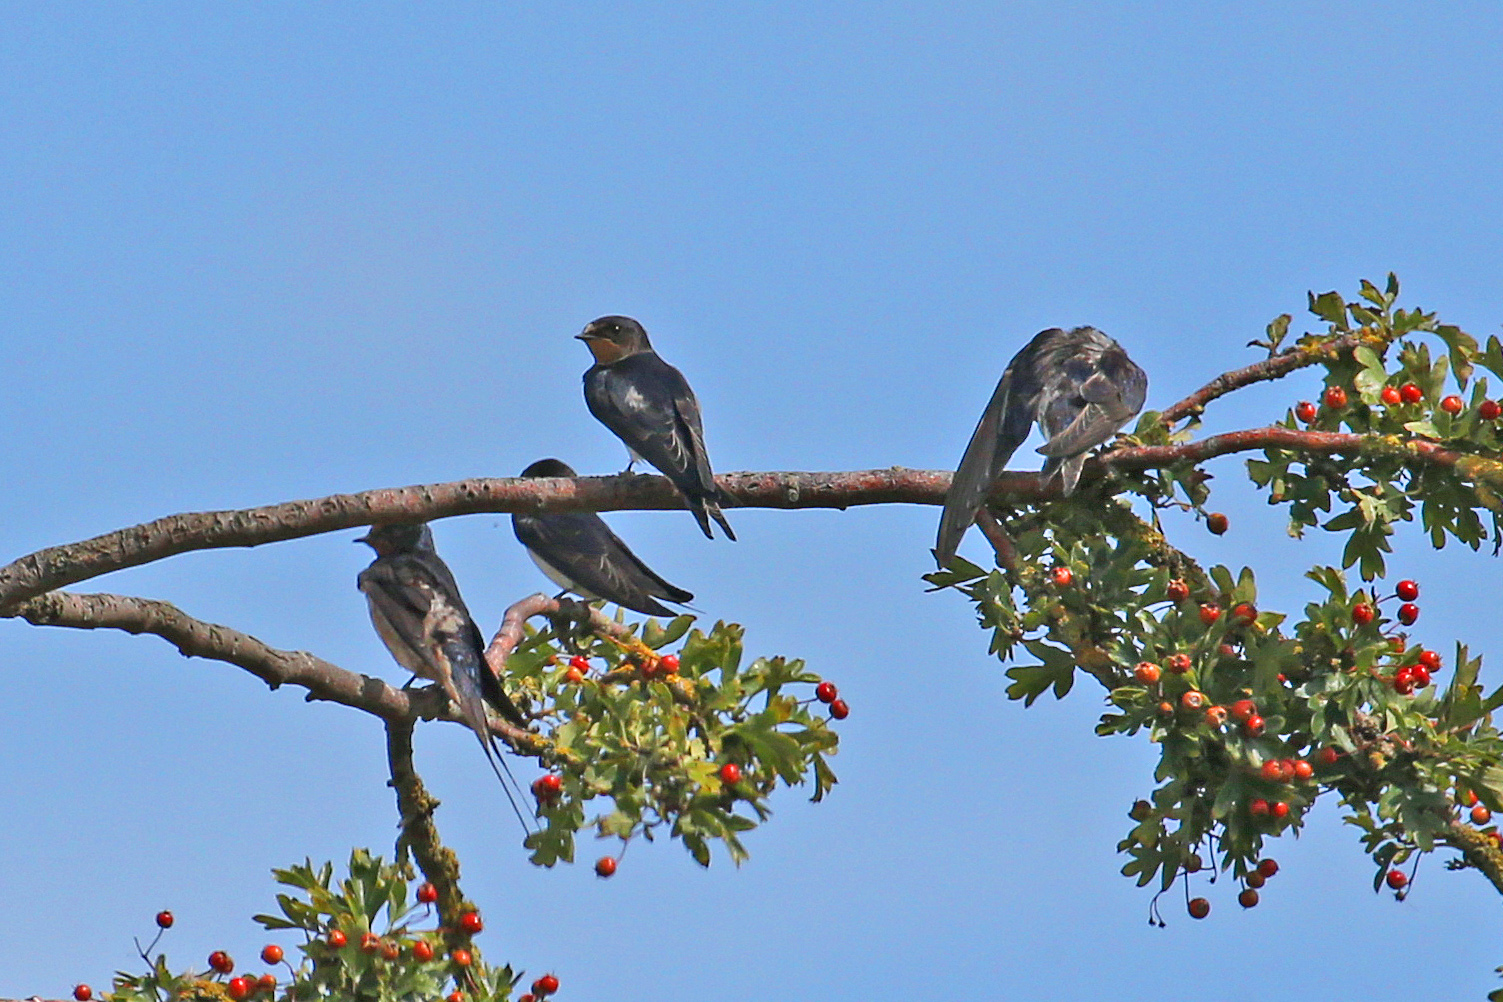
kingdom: Animalia
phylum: Chordata
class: Aves
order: Passeriformes
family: Hirundinidae
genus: Hirundo
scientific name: Hirundo rustica
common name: Barn swallow
